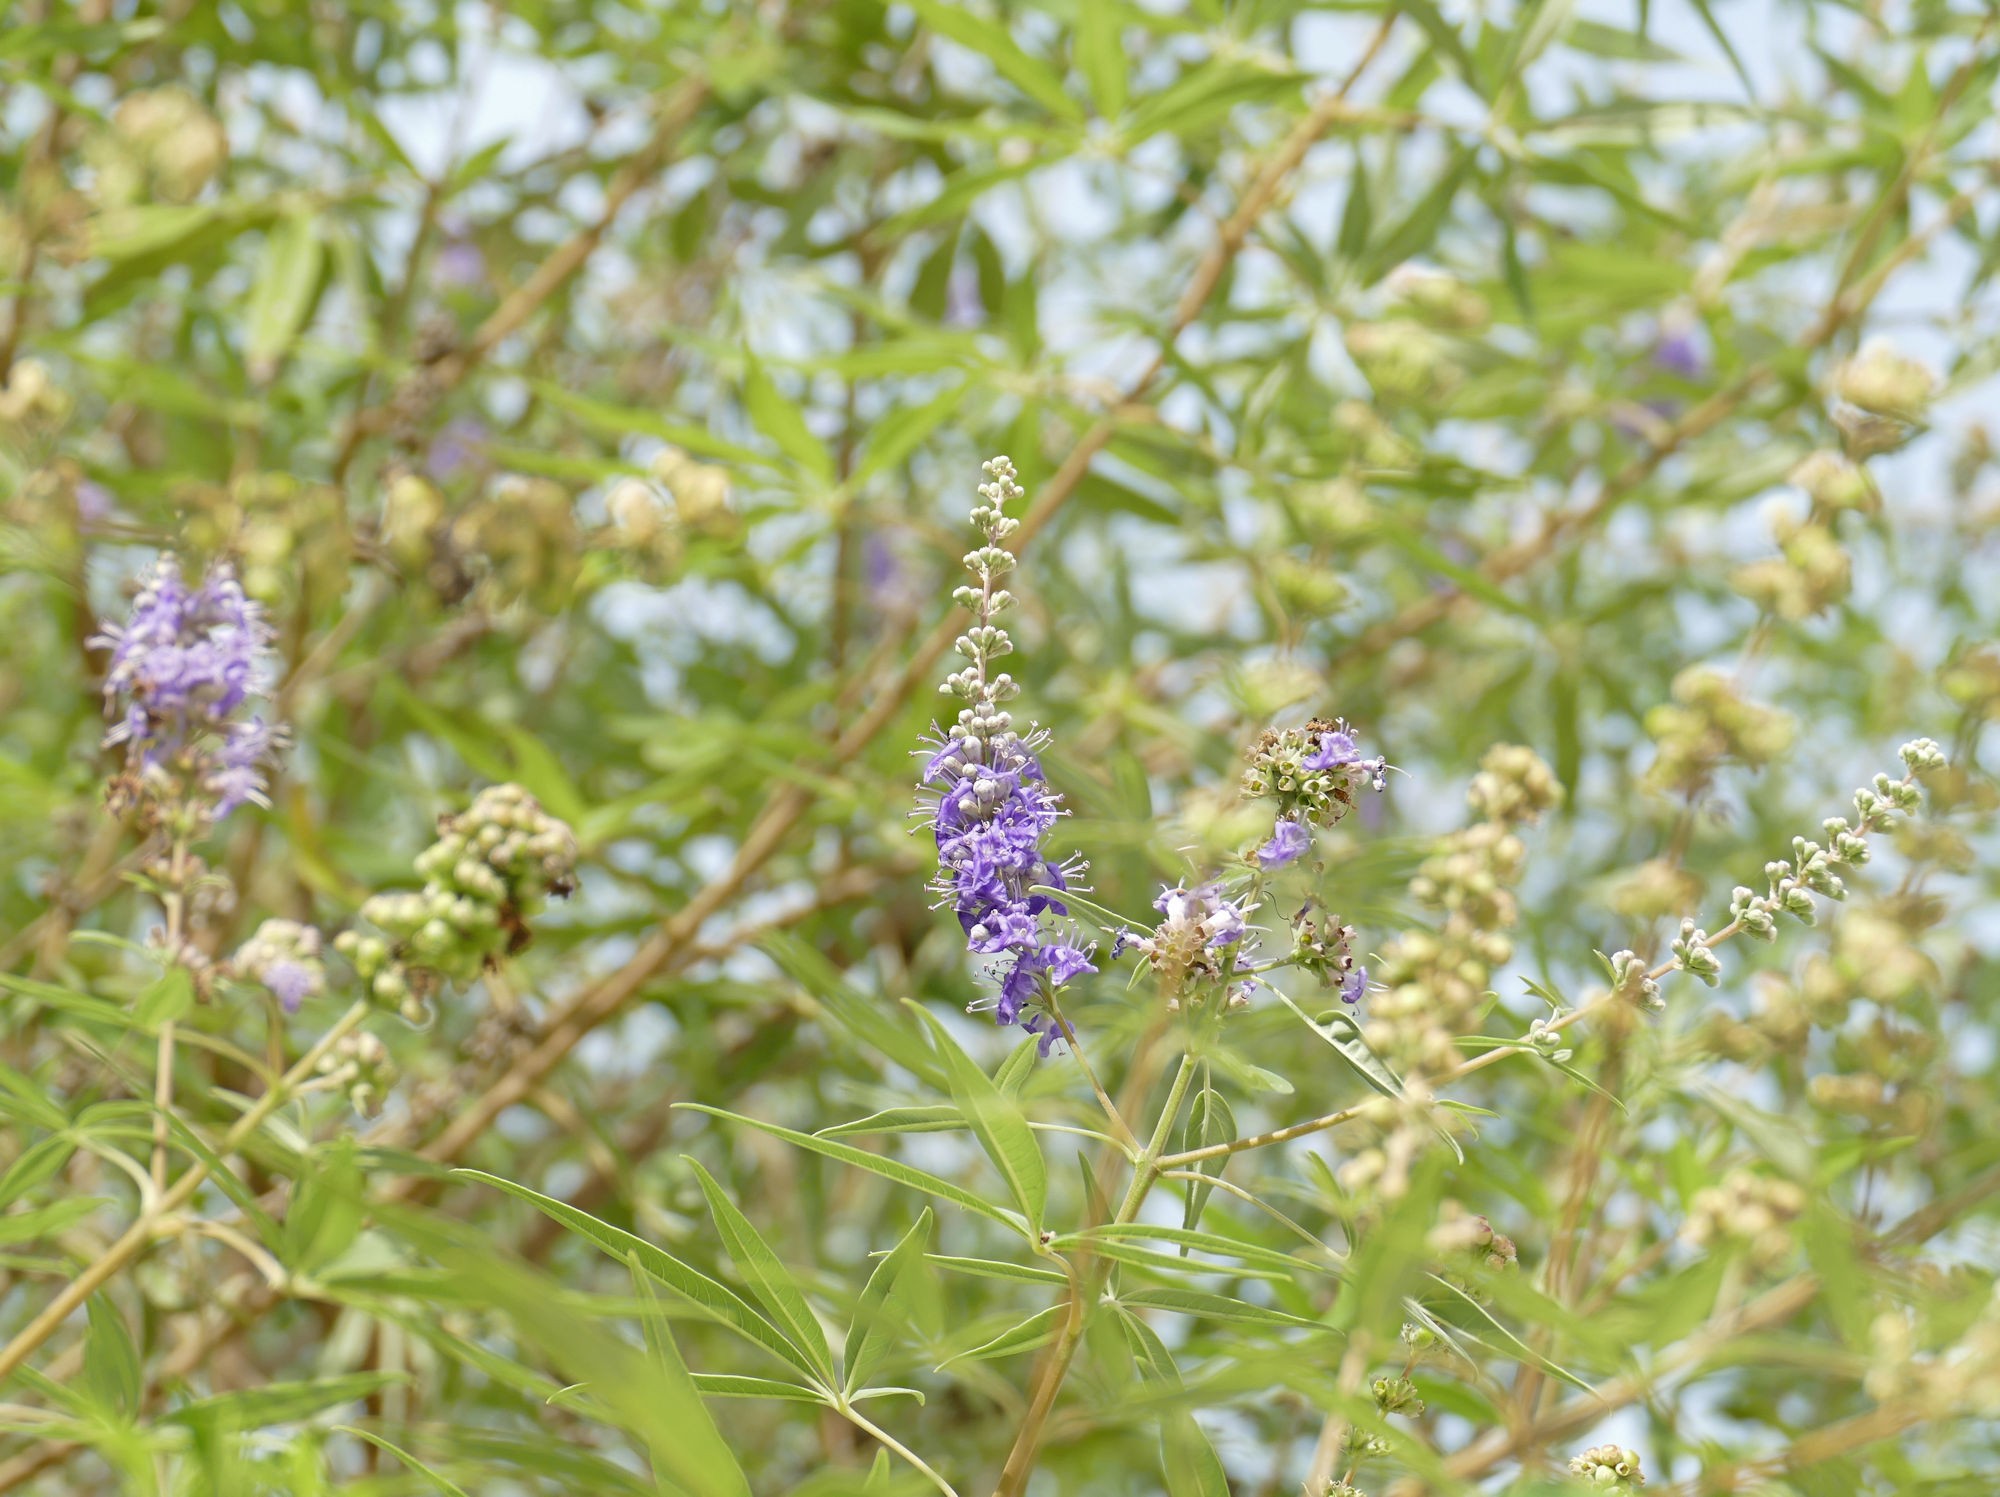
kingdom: Plantae
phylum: Tracheophyta
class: Magnoliopsida
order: Lamiales
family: Lamiaceae
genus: Vitex
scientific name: Vitex agnus-castus
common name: Chasteberry
